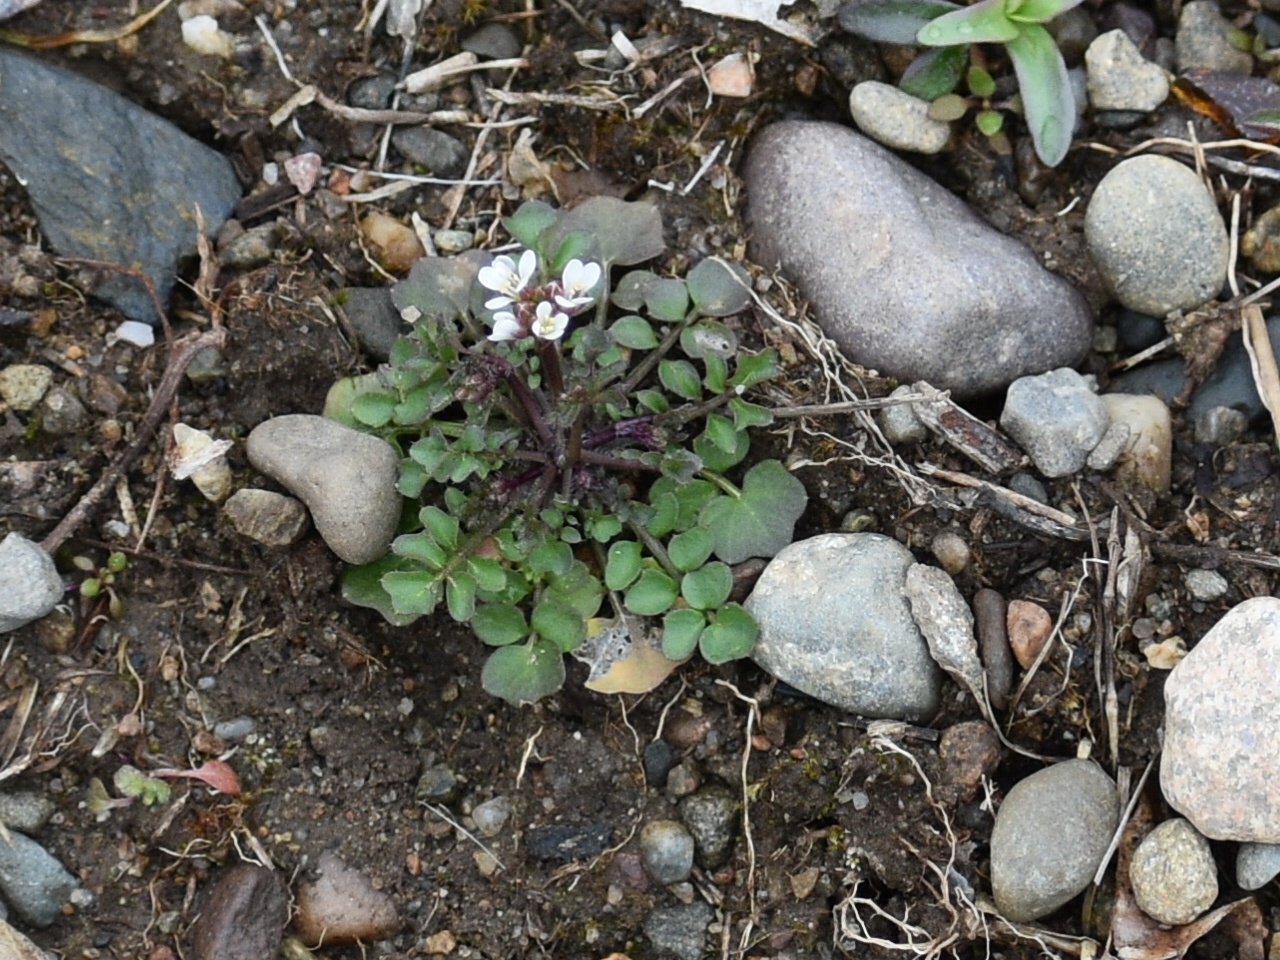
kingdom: Plantae
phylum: Tracheophyta
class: Magnoliopsida
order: Brassicales
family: Brassicaceae
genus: Cardamine
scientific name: Cardamine hirsuta
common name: Hairy bittercress
